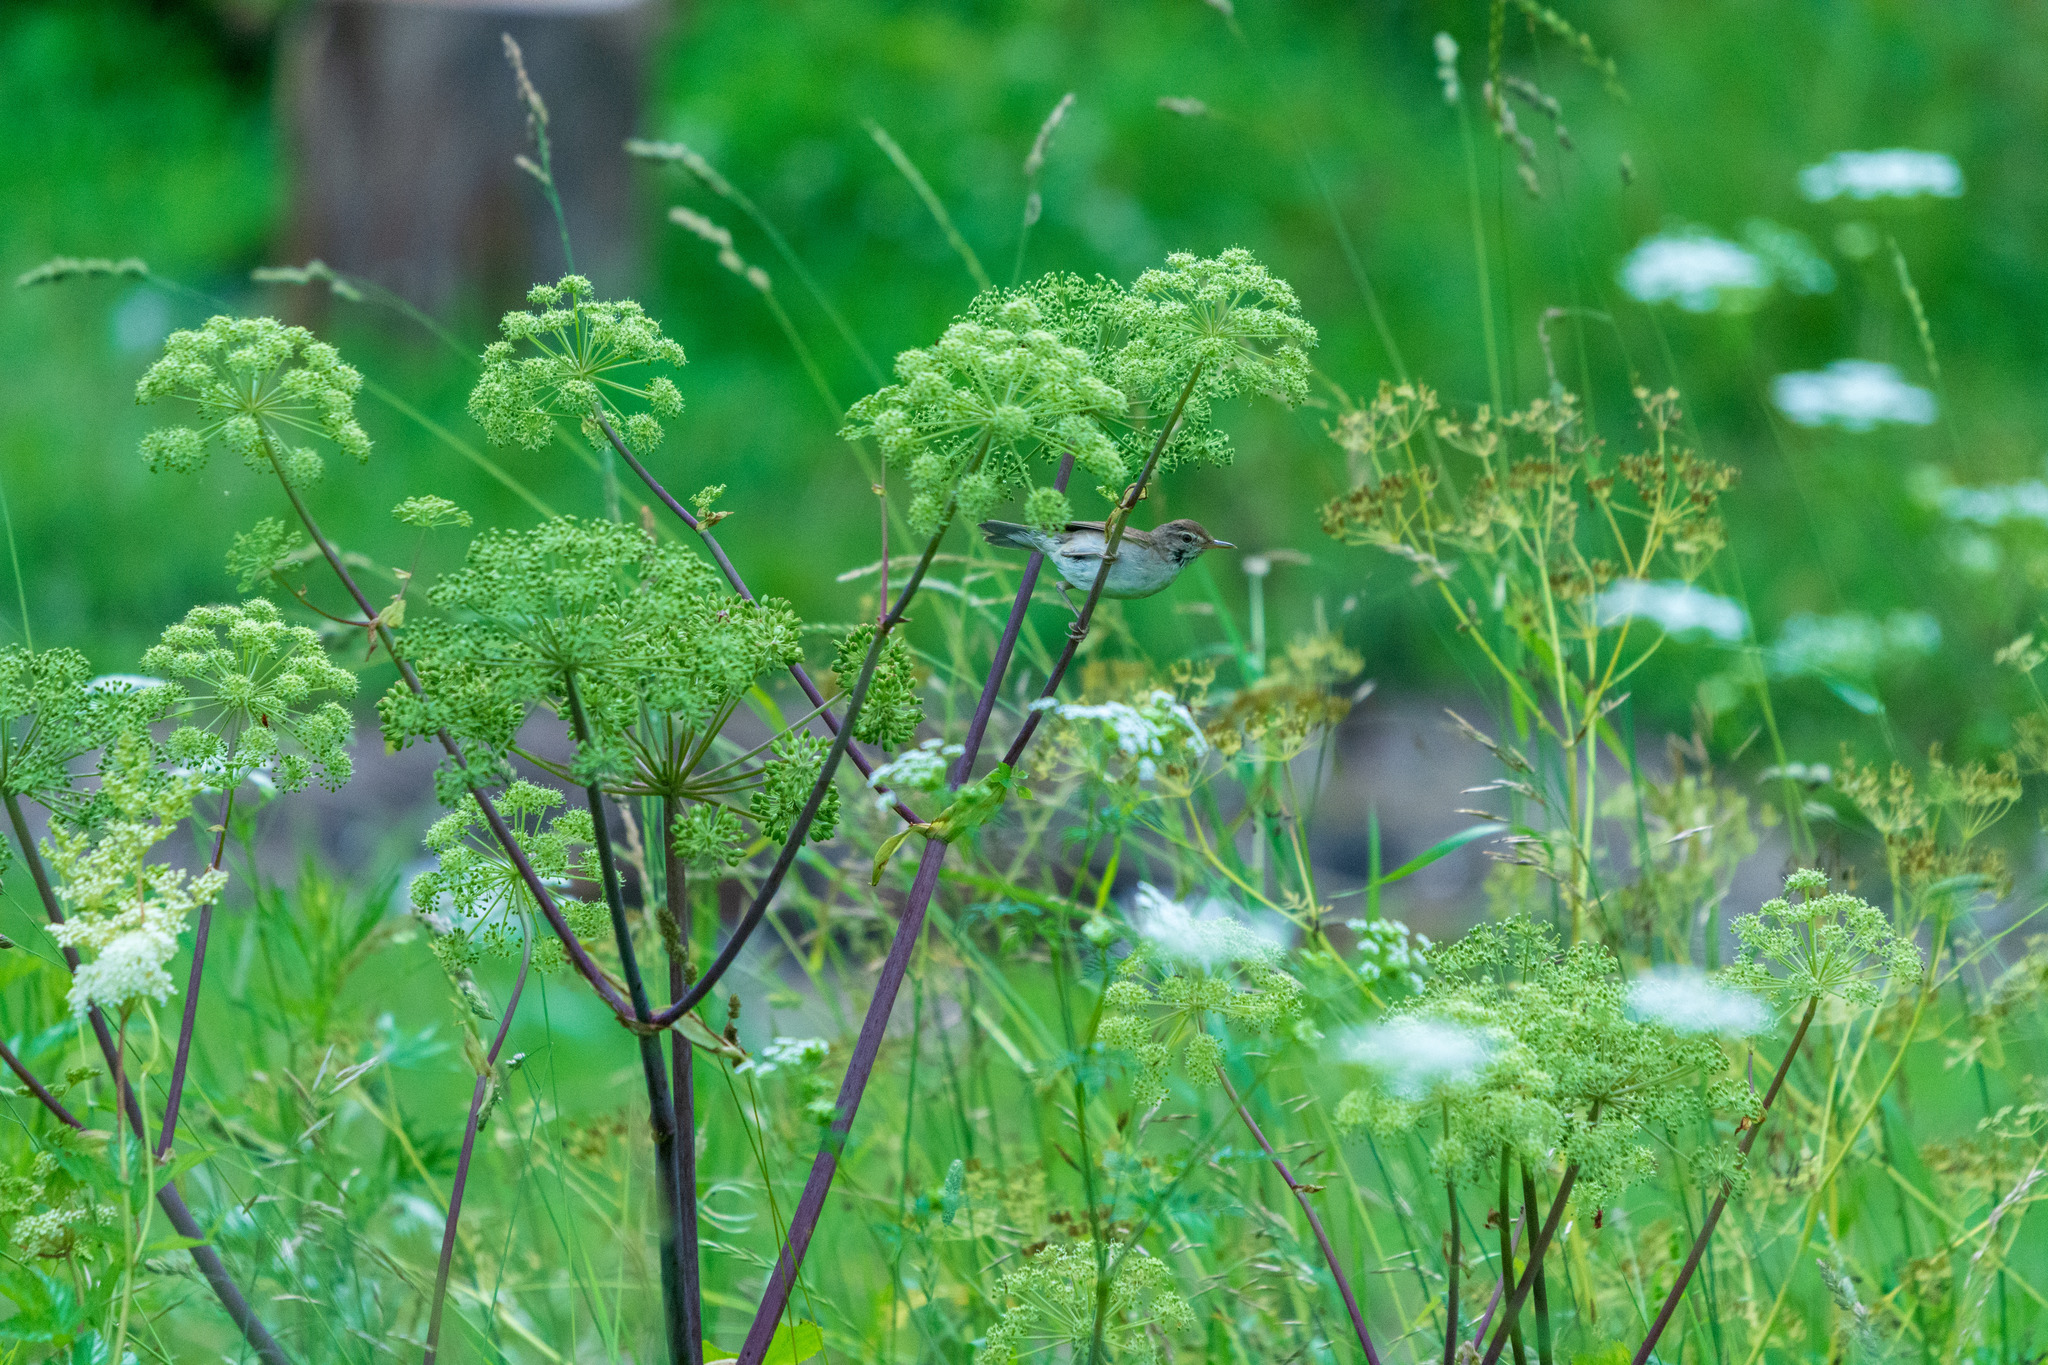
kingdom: Plantae
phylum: Tracheophyta
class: Magnoliopsida
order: Apiales
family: Apiaceae
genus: Angelica
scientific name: Angelica archangelica
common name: Garden angelica
